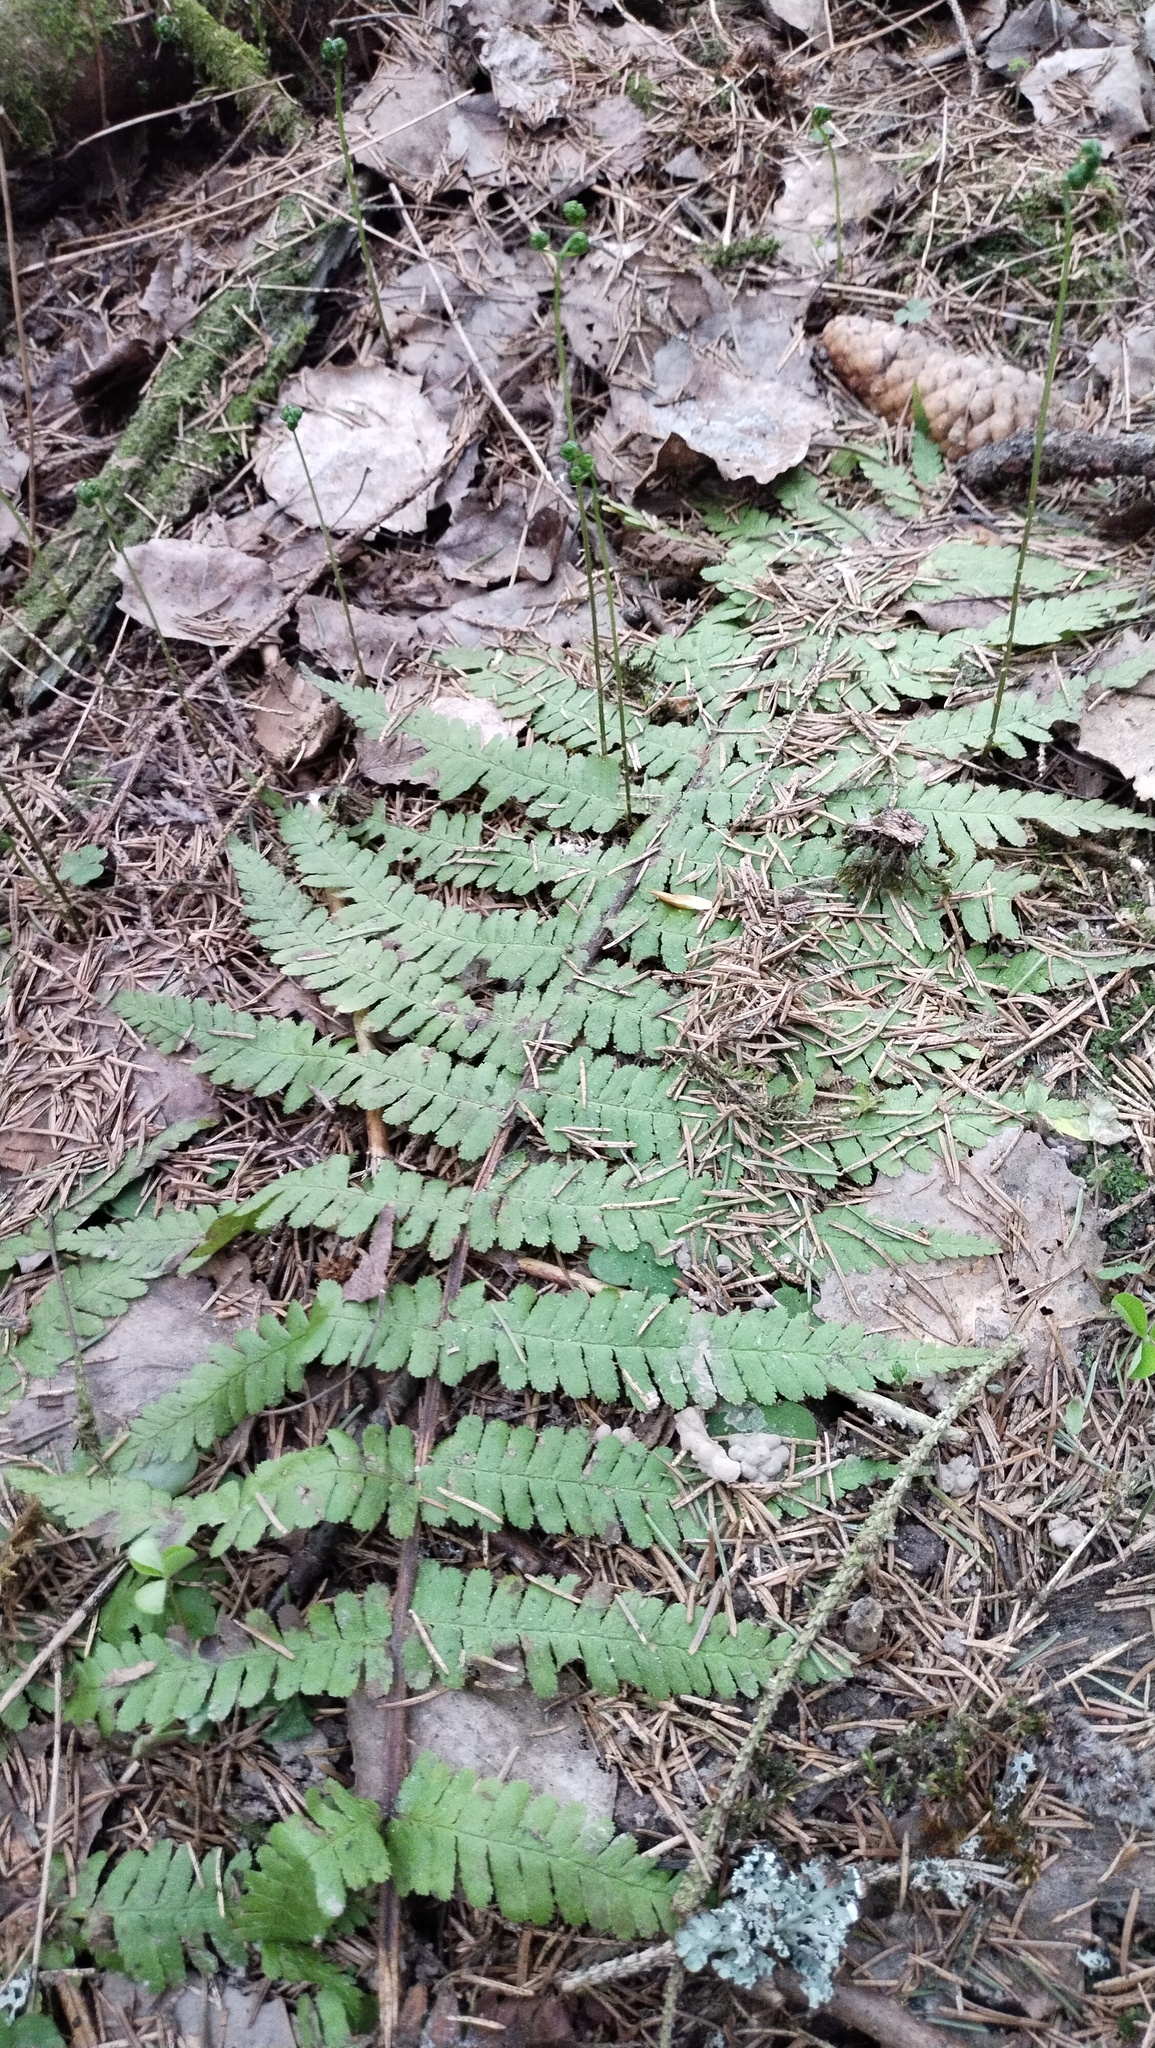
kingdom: Plantae
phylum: Tracheophyta
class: Polypodiopsida
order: Polypodiales
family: Dryopteridaceae
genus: Dryopteris
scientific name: Dryopteris filix-mas
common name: Male fern
